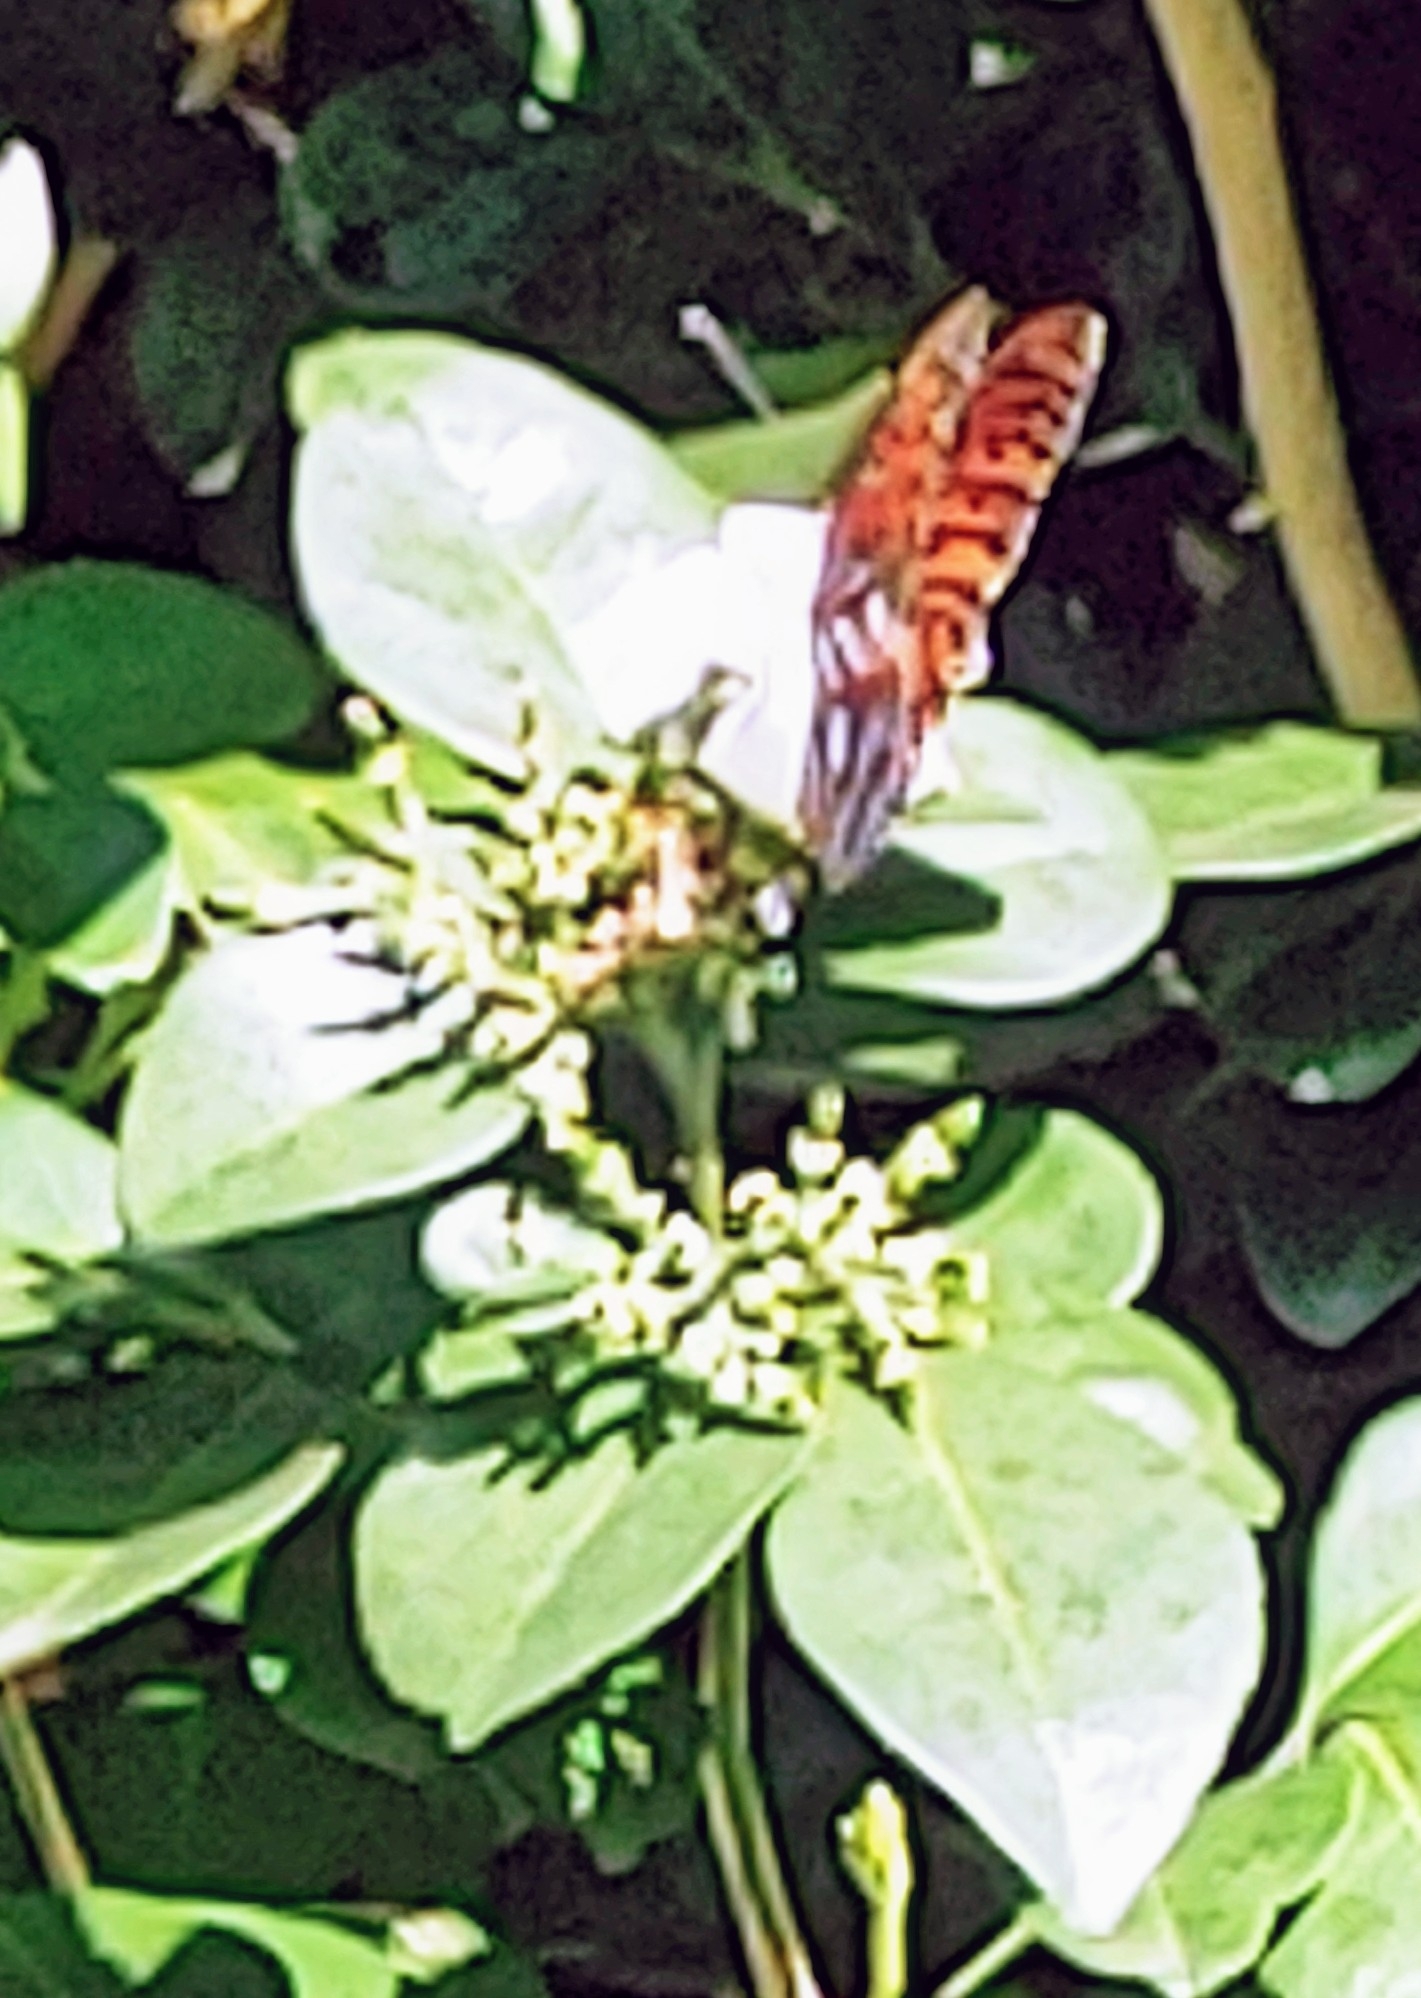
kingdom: Animalia
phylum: Arthropoda
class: Insecta
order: Lepidoptera
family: Nymphalidae
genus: Dione
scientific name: Dione vanillae
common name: Gulf fritillary
